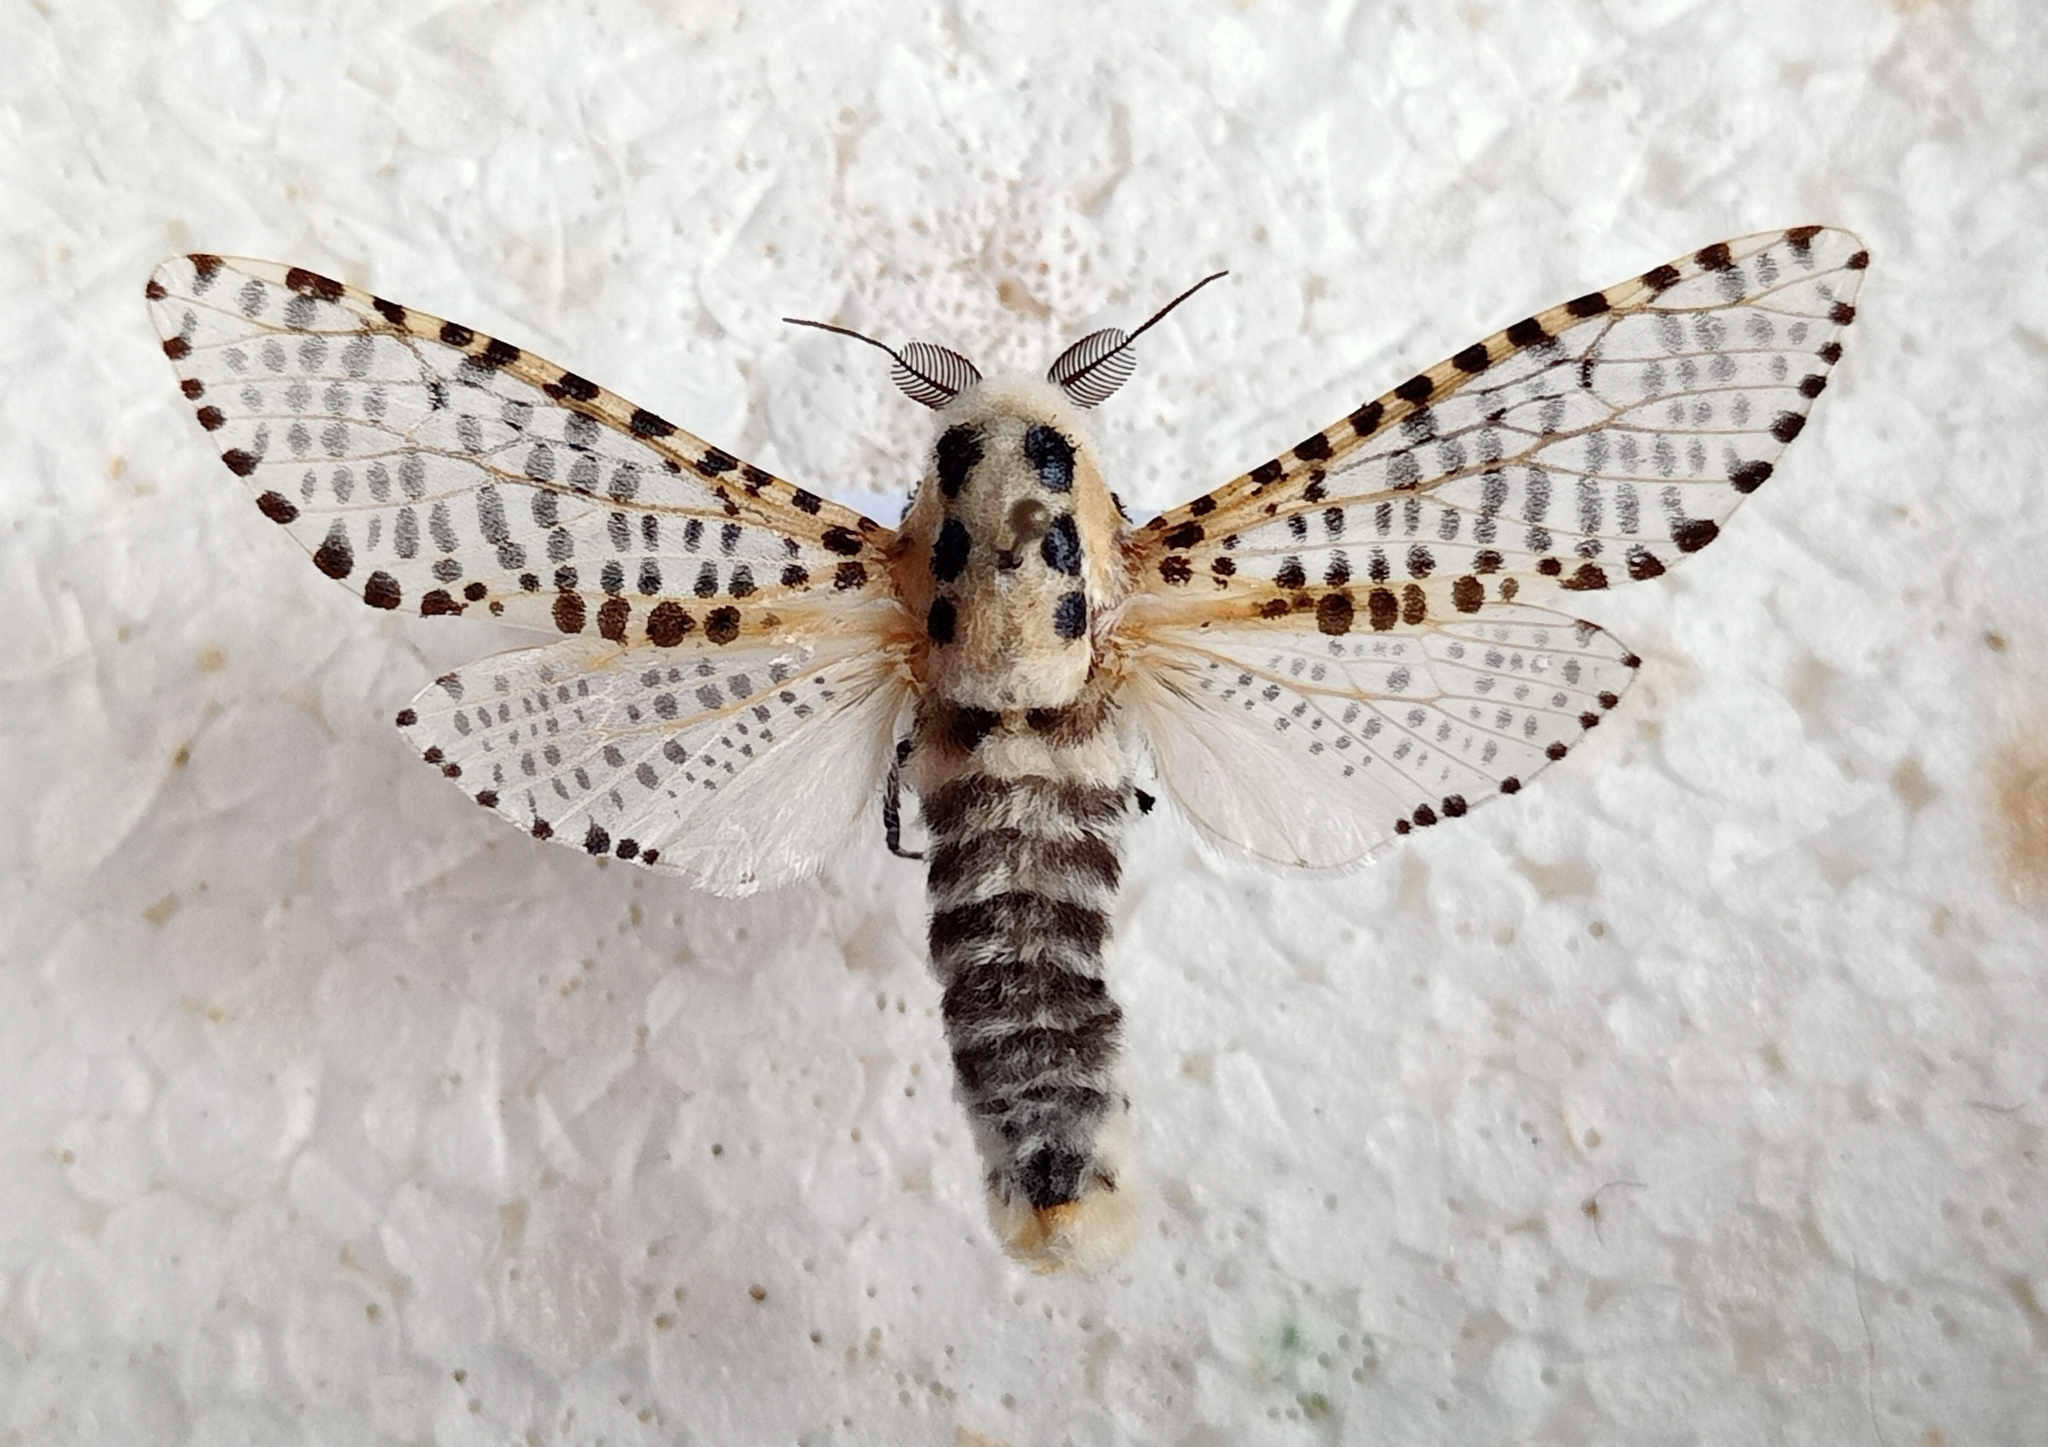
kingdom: Animalia
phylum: Arthropoda
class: Insecta
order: Lepidoptera
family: Cossidae
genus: Zeuzera
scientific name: Zeuzera pyrina
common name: Leopard moth
